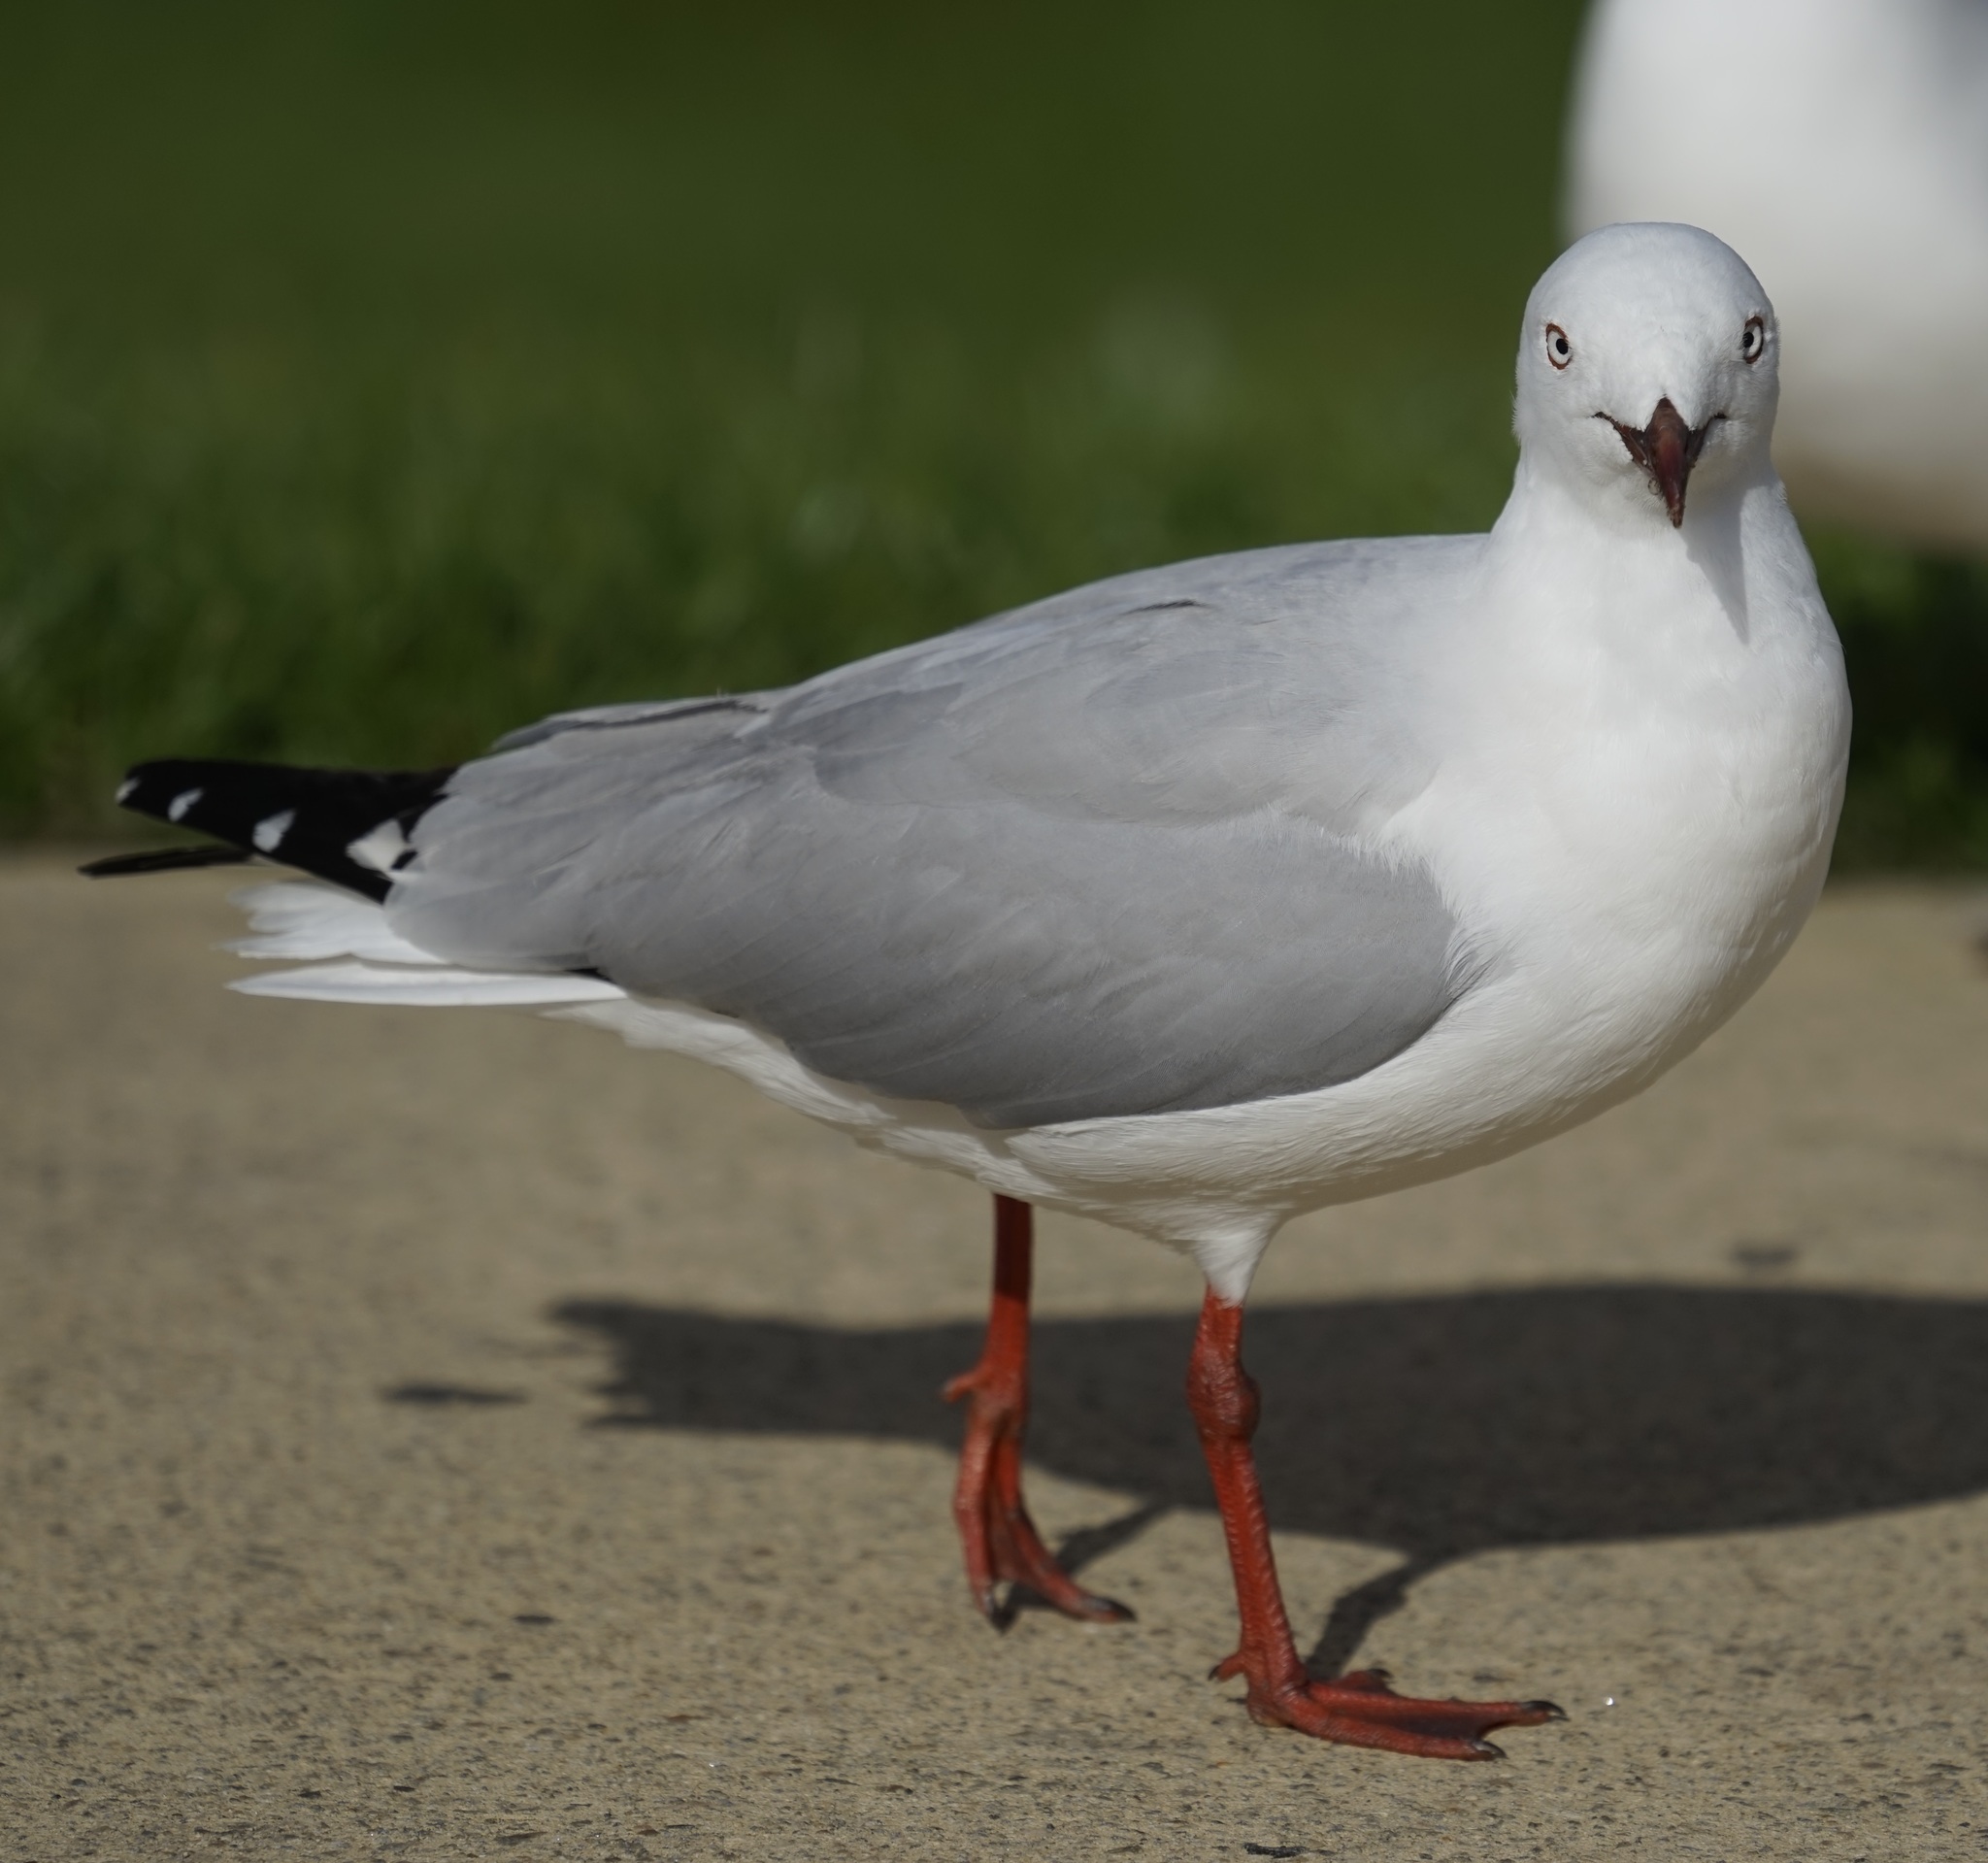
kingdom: Animalia
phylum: Chordata
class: Aves
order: Charadriiformes
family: Laridae
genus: Chroicocephalus
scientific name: Chroicocephalus novaehollandiae
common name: Silver gull
